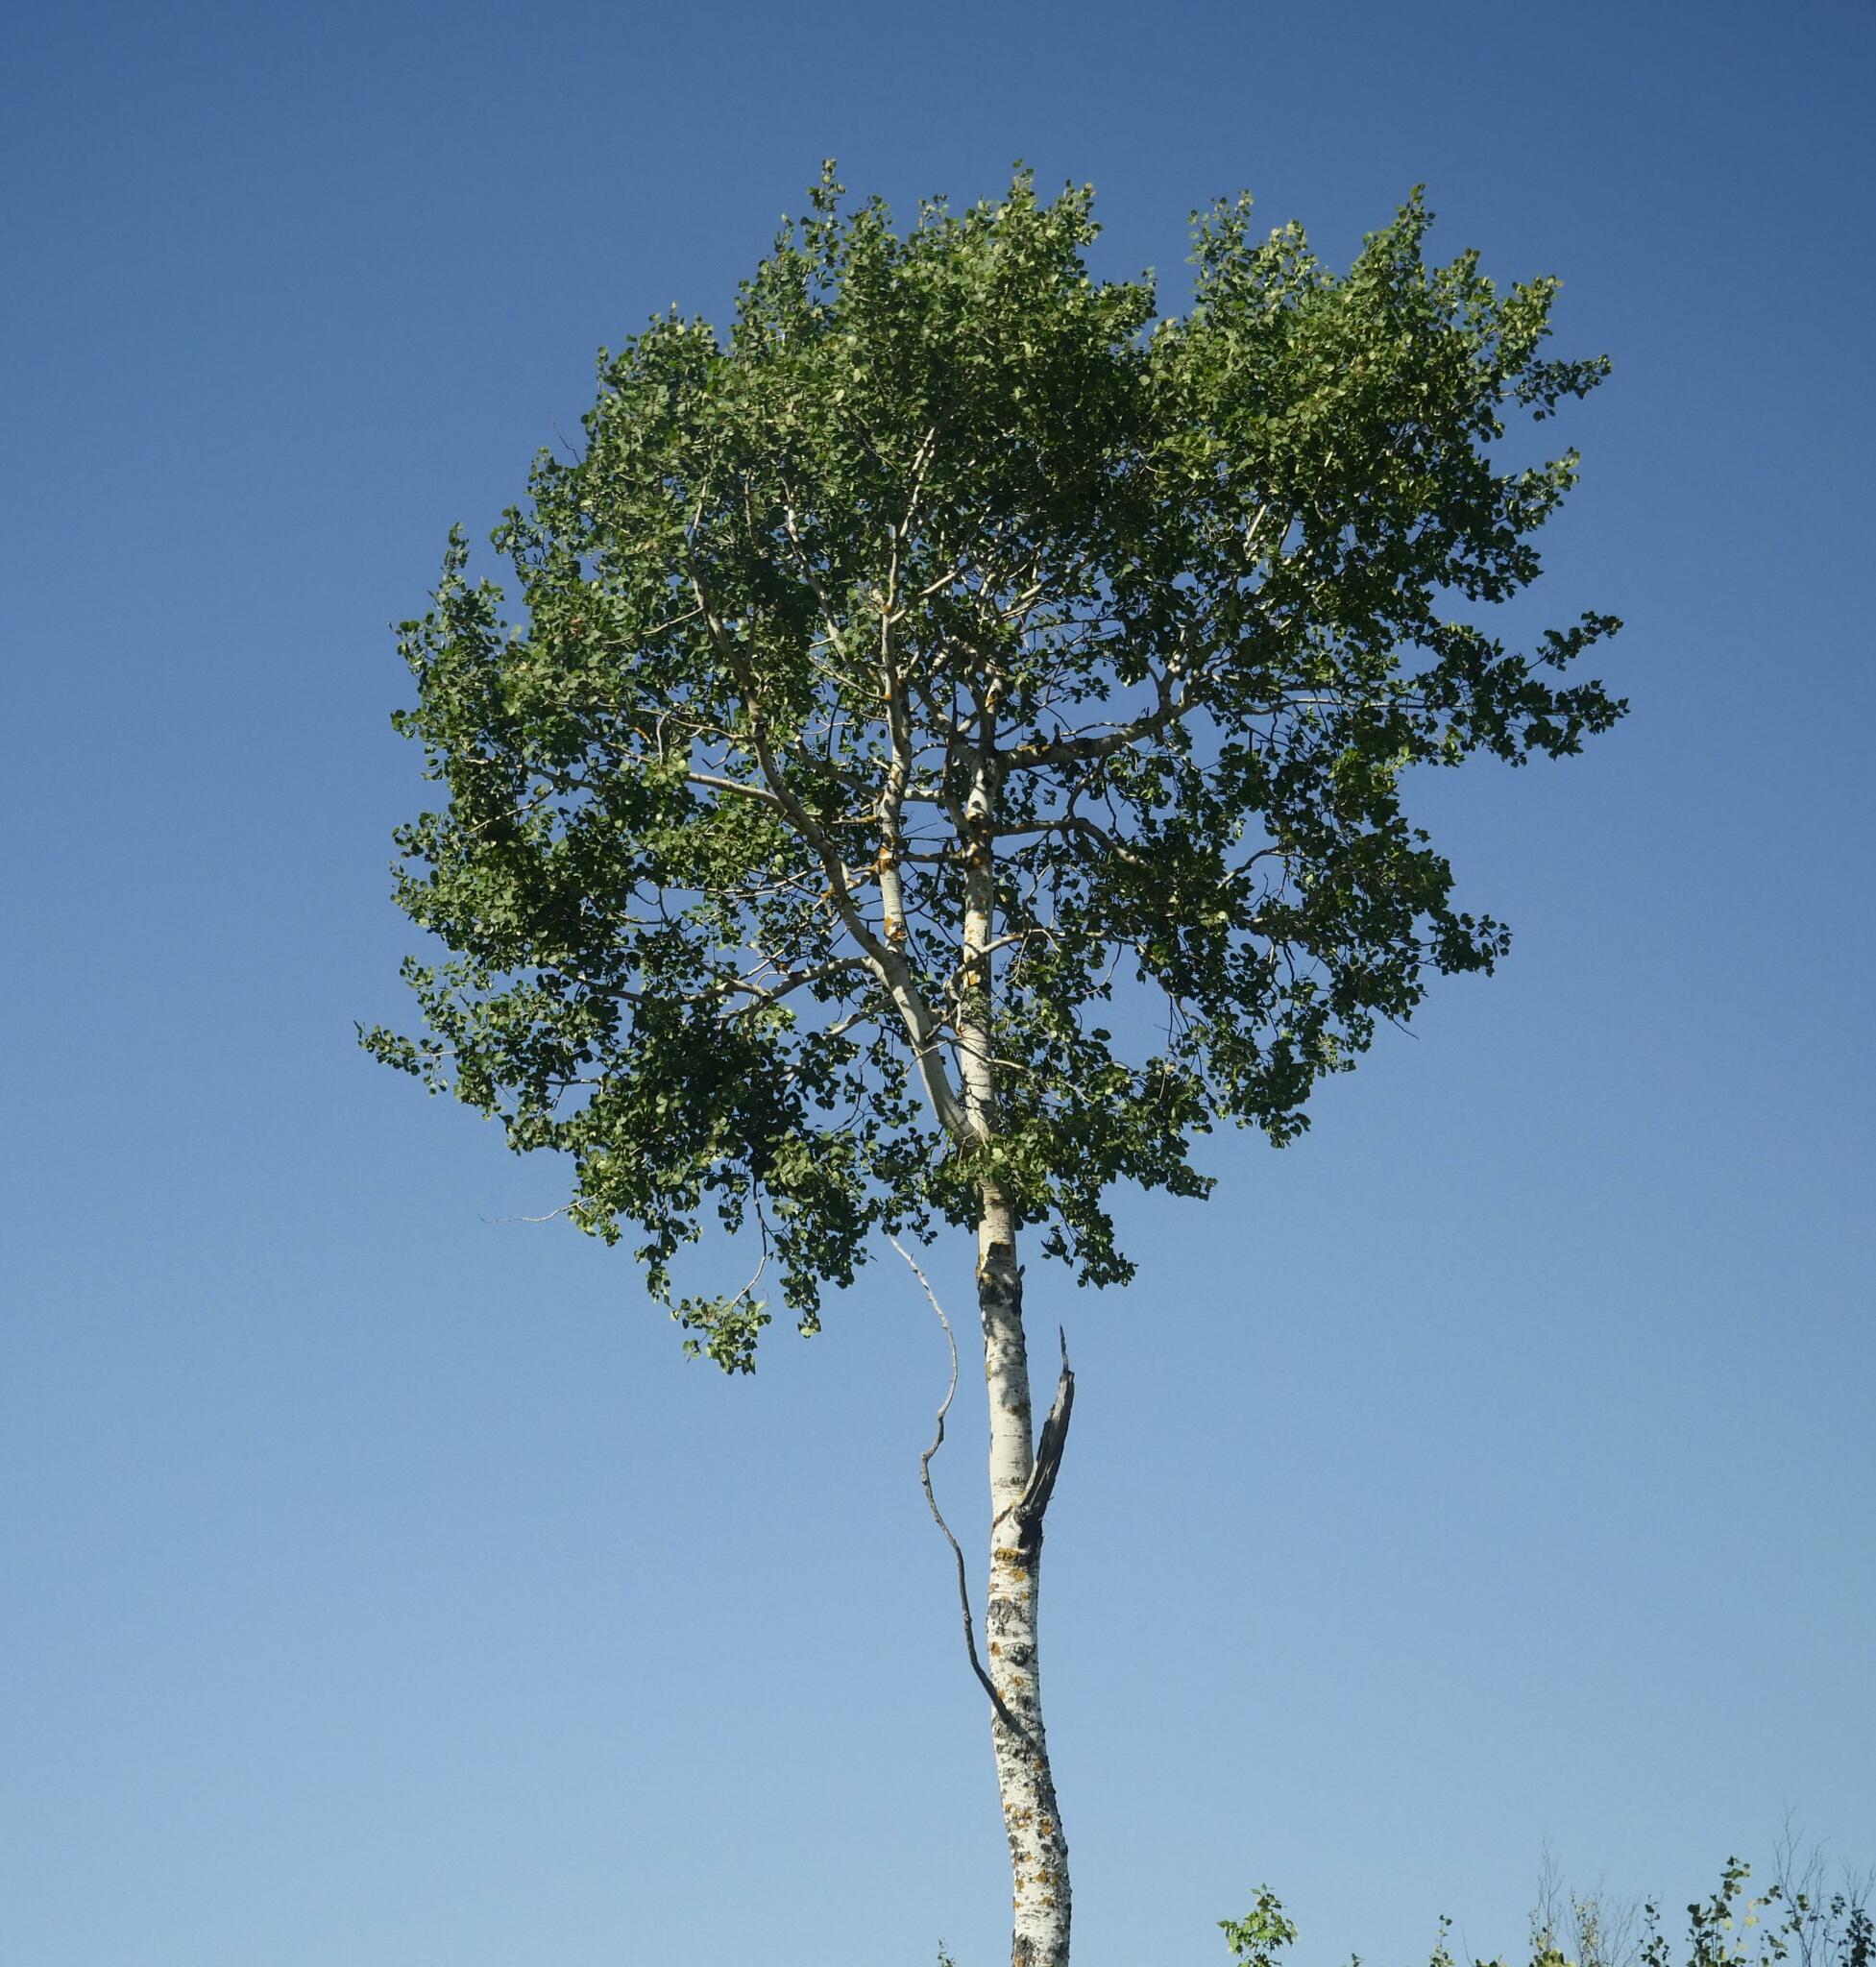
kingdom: Plantae
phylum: Tracheophyta
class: Magnoliopsida
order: Malpighiales
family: Salicaceae
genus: Populus
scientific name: Populus tremuloides
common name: Quaking aspen
